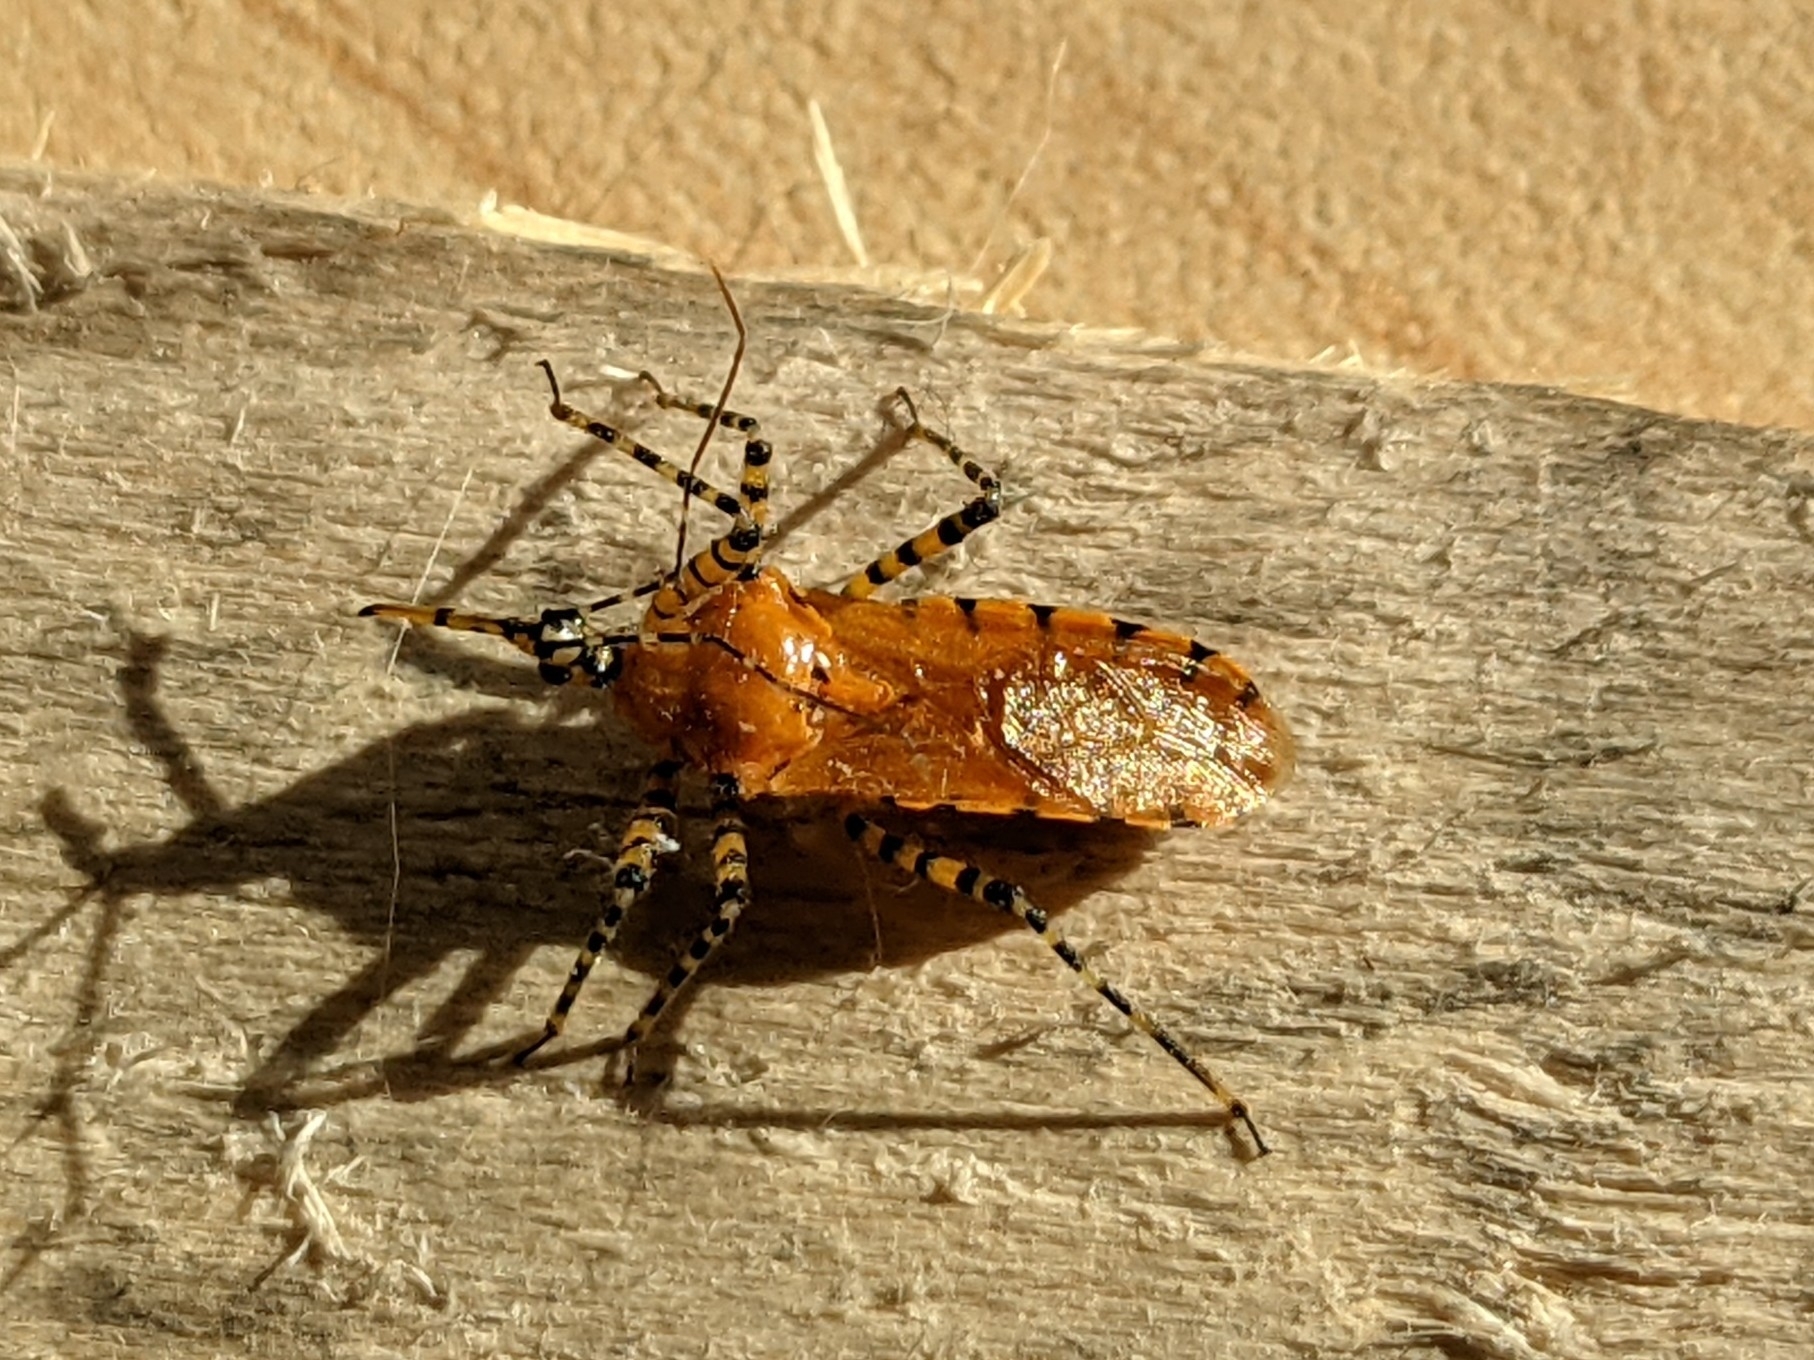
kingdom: Animalia
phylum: Arthropoda
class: Insecta
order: Hemiptera
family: Reduviidae
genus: Pselliopus
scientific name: Pselliopus barberi
